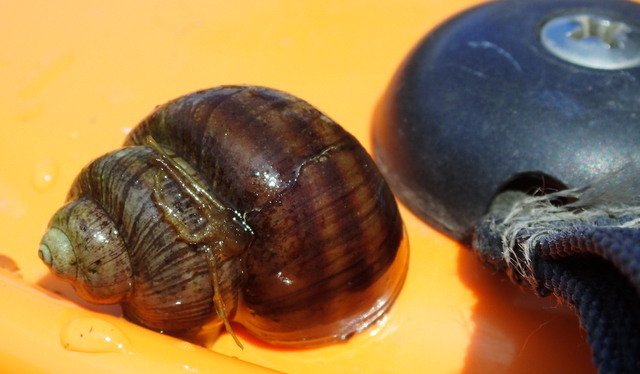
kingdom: Animalia
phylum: Mollusca
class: Gastropoda
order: Architaenioglossa
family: Viviparidae
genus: Callinina
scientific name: Callinina georgiana
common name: Banded mystery snail
